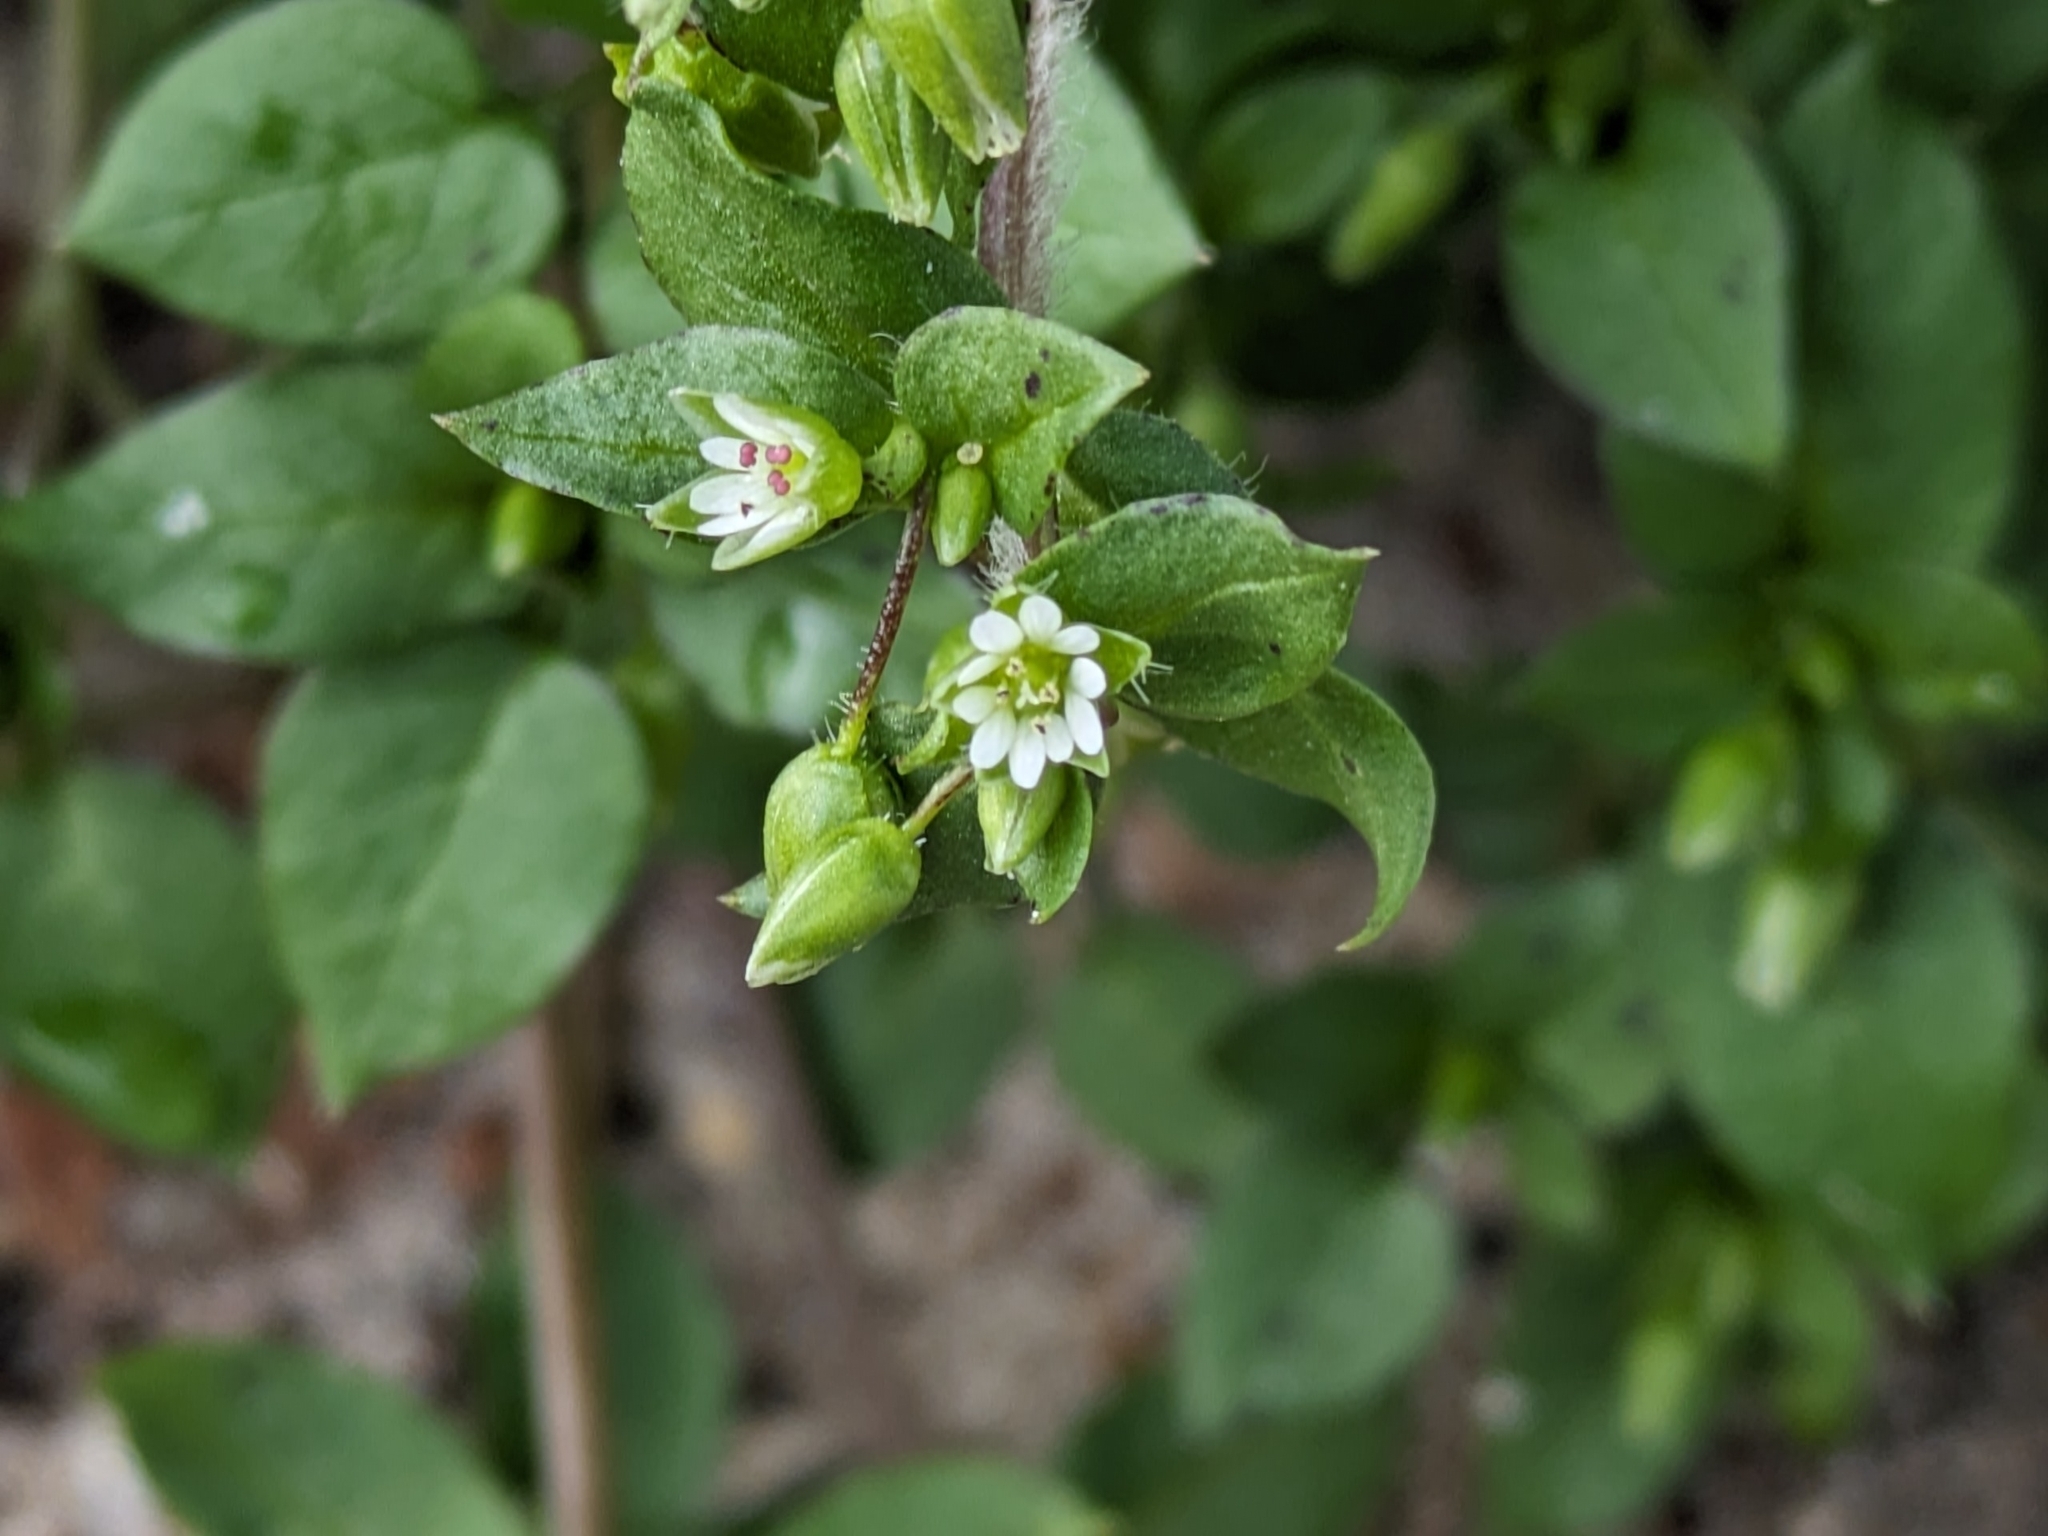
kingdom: Plantae
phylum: Tracheophyta
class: Magnoliopsida
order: Caryophyllales
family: Caryophyllaceae
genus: Stellaria
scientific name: Stellaria media
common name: Common chickweed
